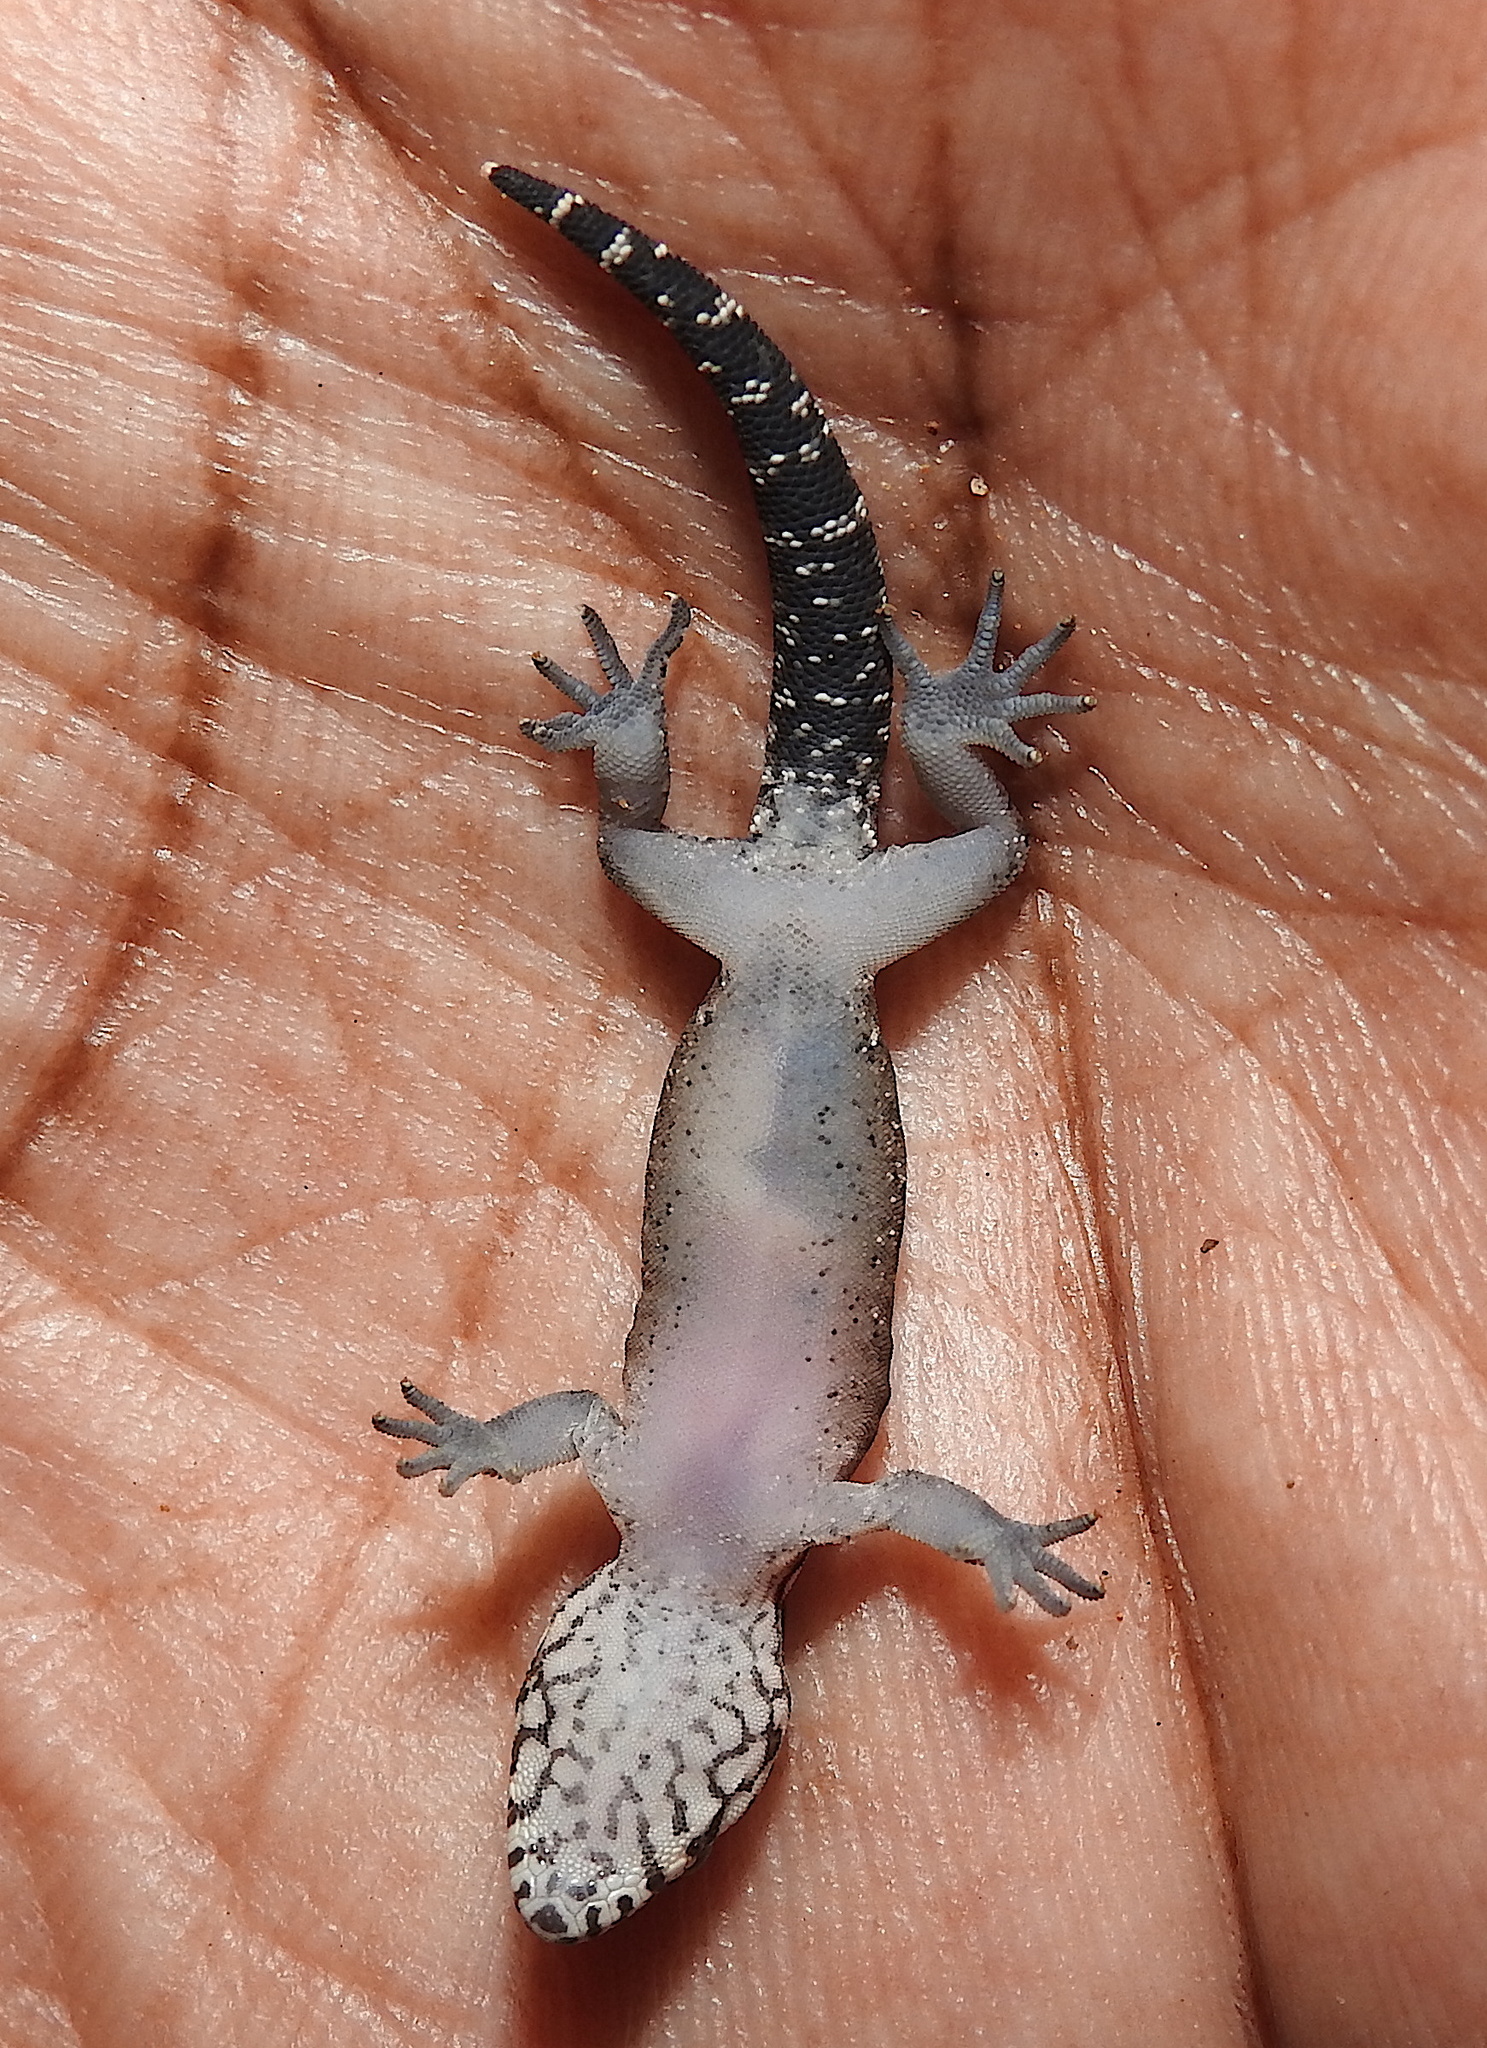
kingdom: Animalia
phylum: Chordata
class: Squamata
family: Gekkonidae
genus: Cyrtodactylus
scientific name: Cyrtodactylus aravindi
